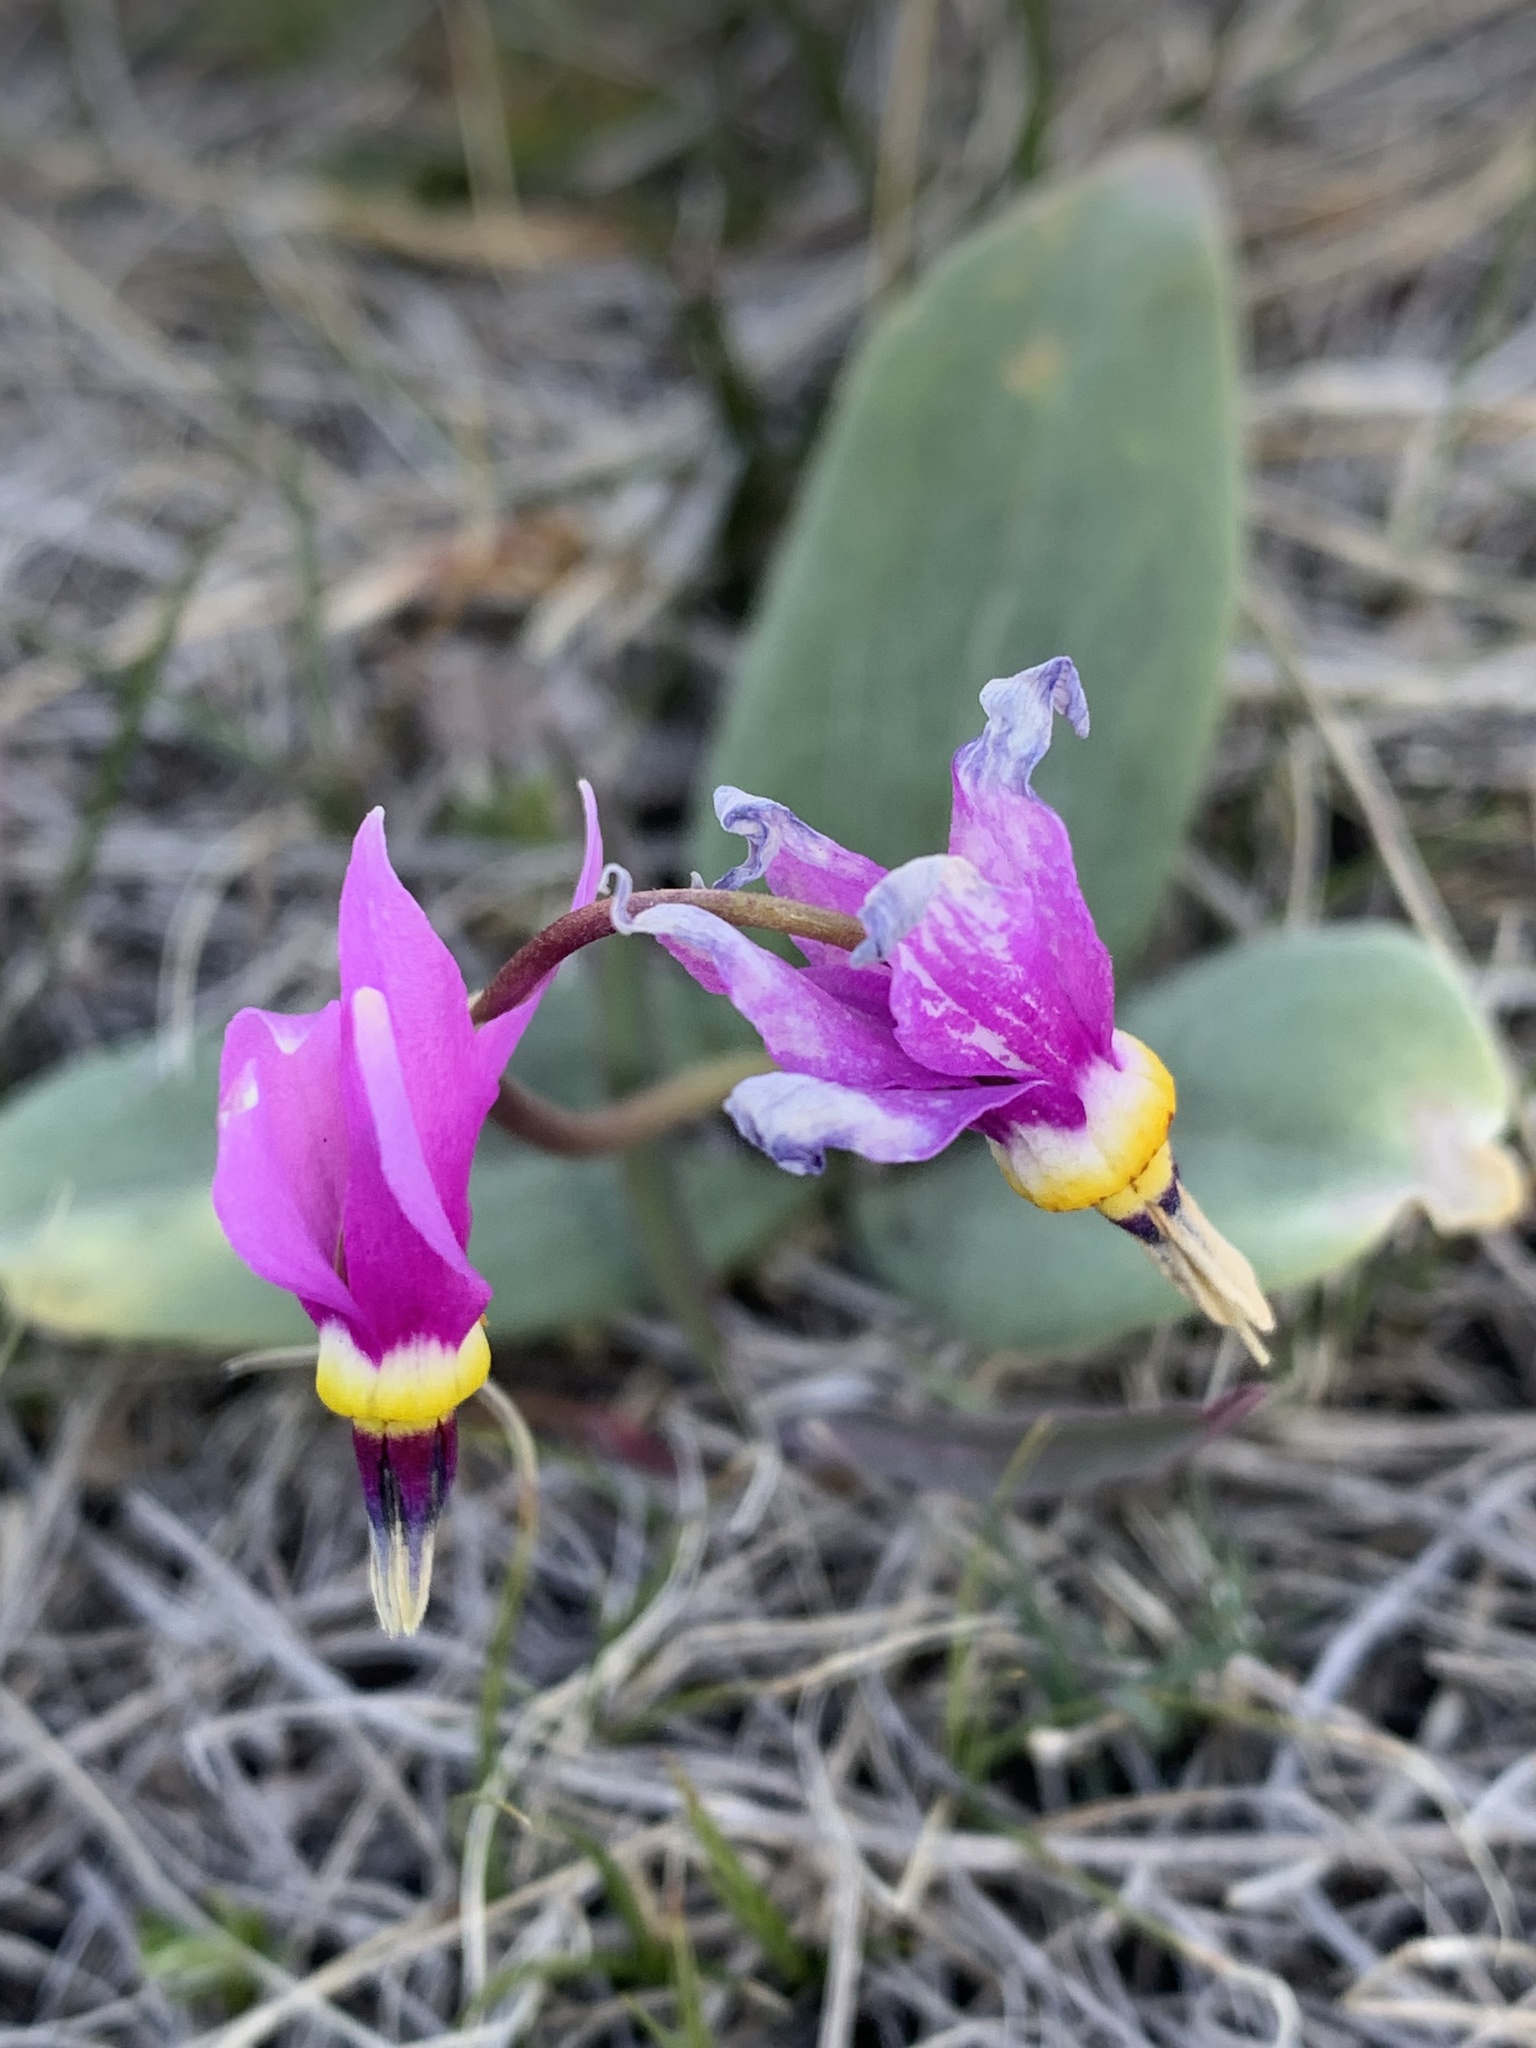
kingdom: Plantae
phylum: Tracheophyta
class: Magnoliopsida
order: Ericales
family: Primulaceae
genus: Dodecatheon
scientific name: Dodecatheon conjugens
